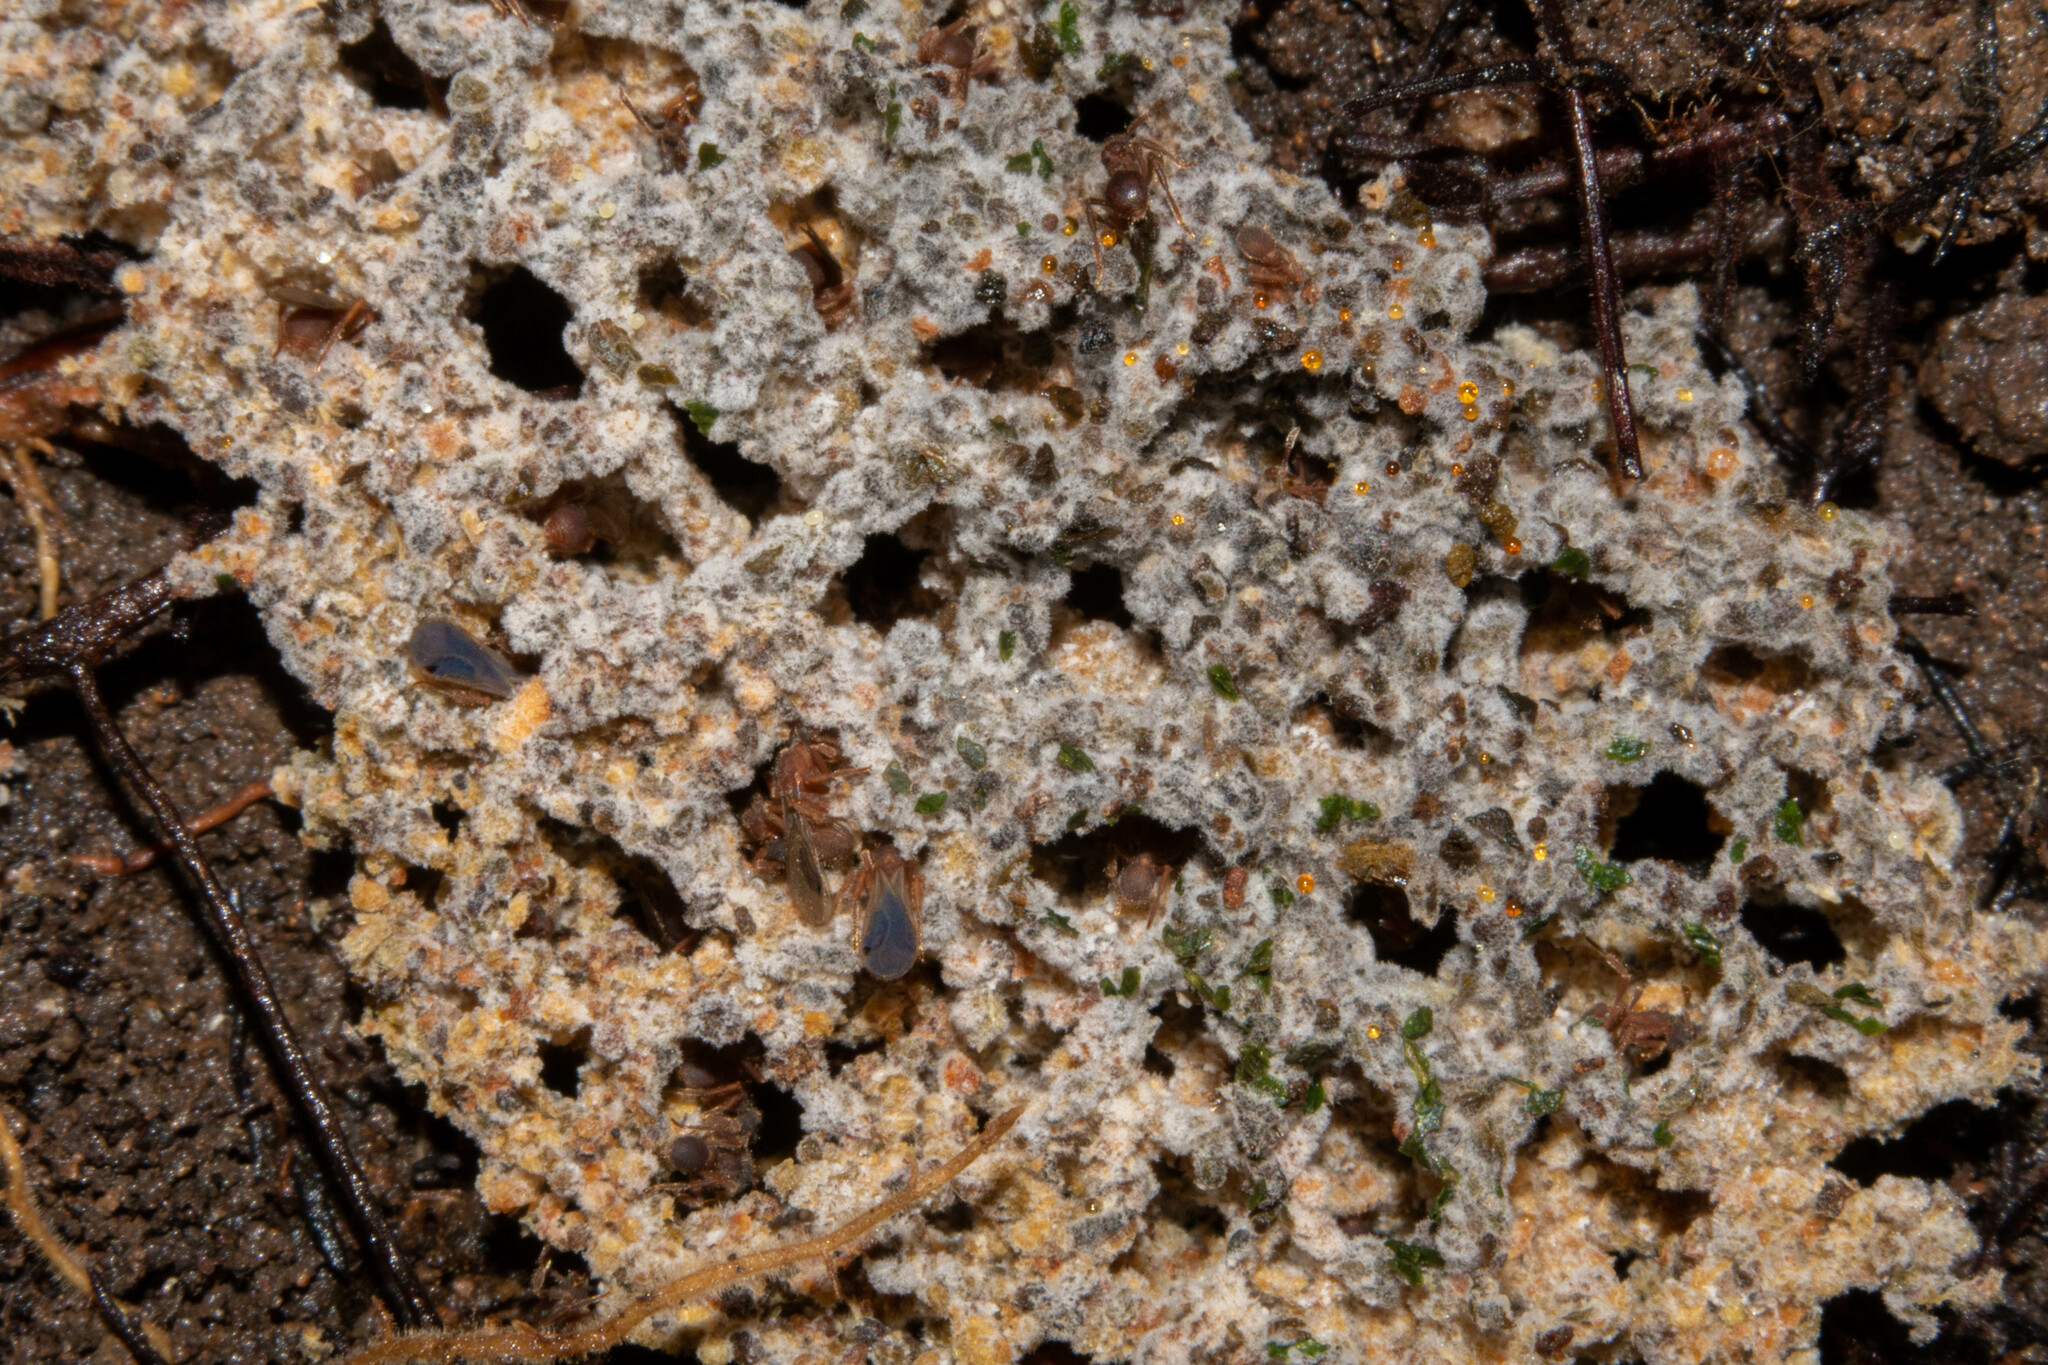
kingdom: Fungi
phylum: Basidiomycota
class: Agaricomycetes
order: Agaricales
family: Pterulaceae
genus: Myrmecopterula
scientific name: Myrmecopterula nudihortorum
